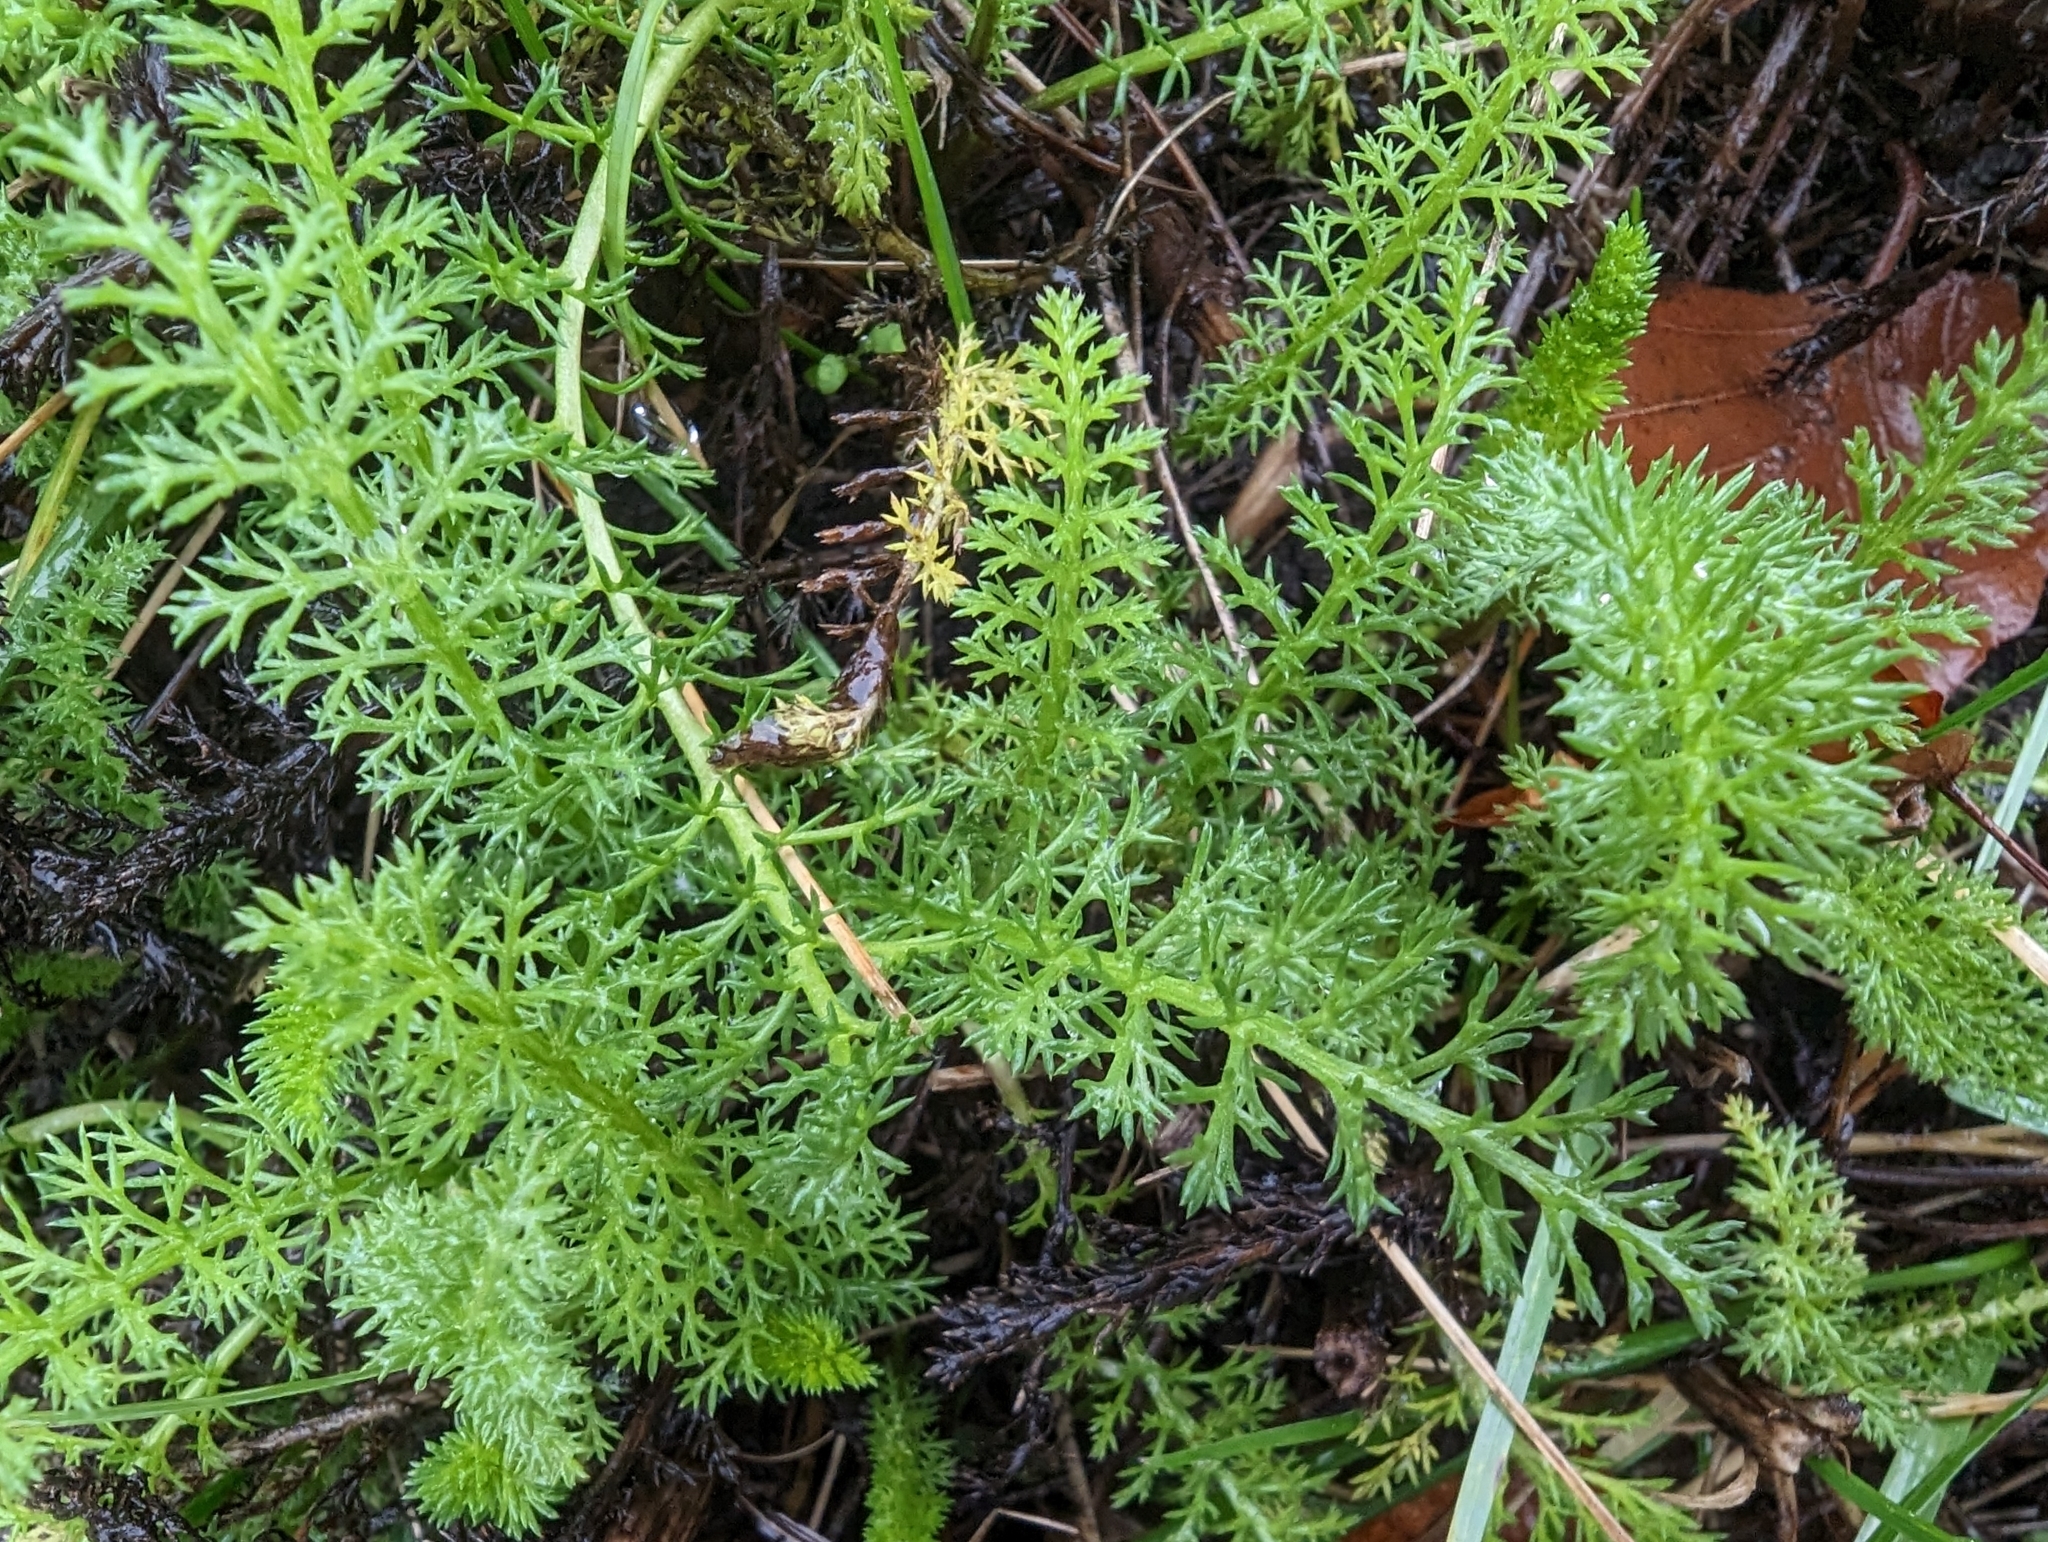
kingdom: Plantae
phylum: Tracheophyta
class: Magnoliopsida
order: Asterales
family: Asteraceae
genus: Achillea
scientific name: Achillea millefolium
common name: Yarrow
